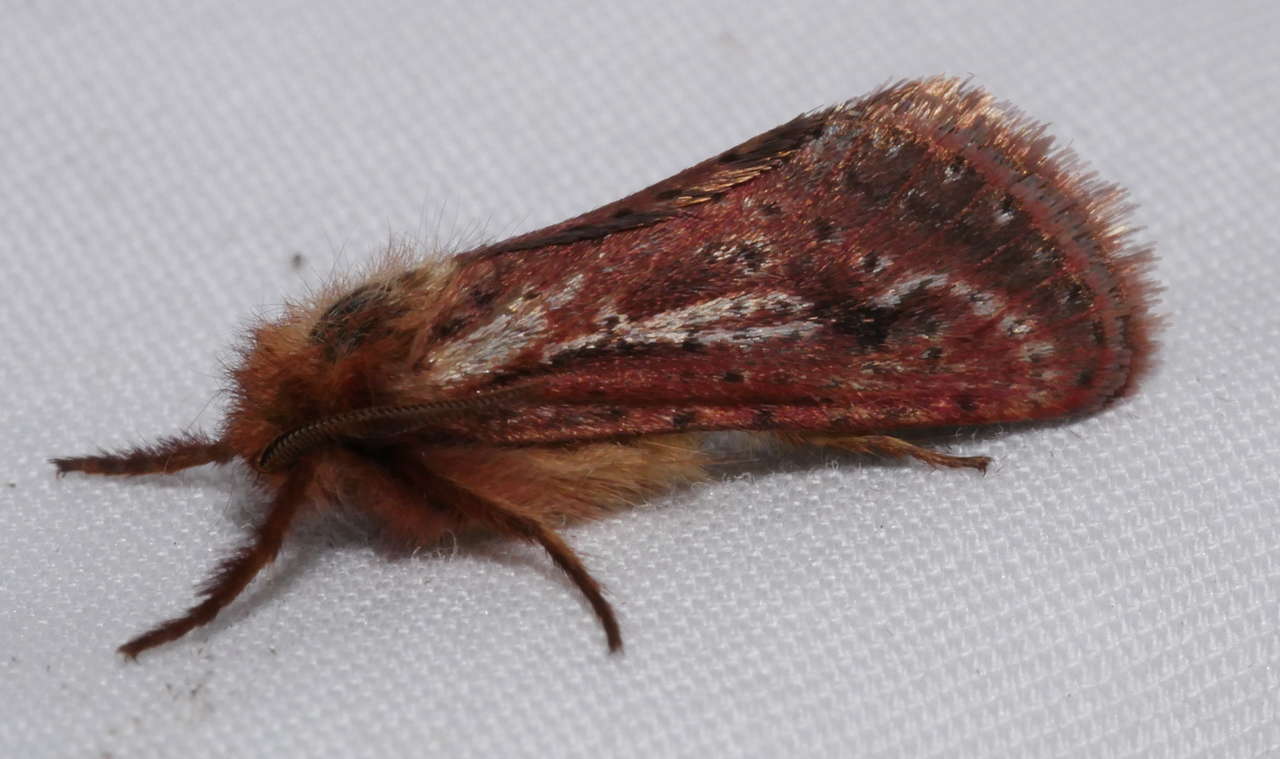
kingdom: Animalia
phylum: Arthropoda
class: Insecta
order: Lepidoptera
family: Hepialidae
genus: Fraus
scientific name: Fraus simulans
